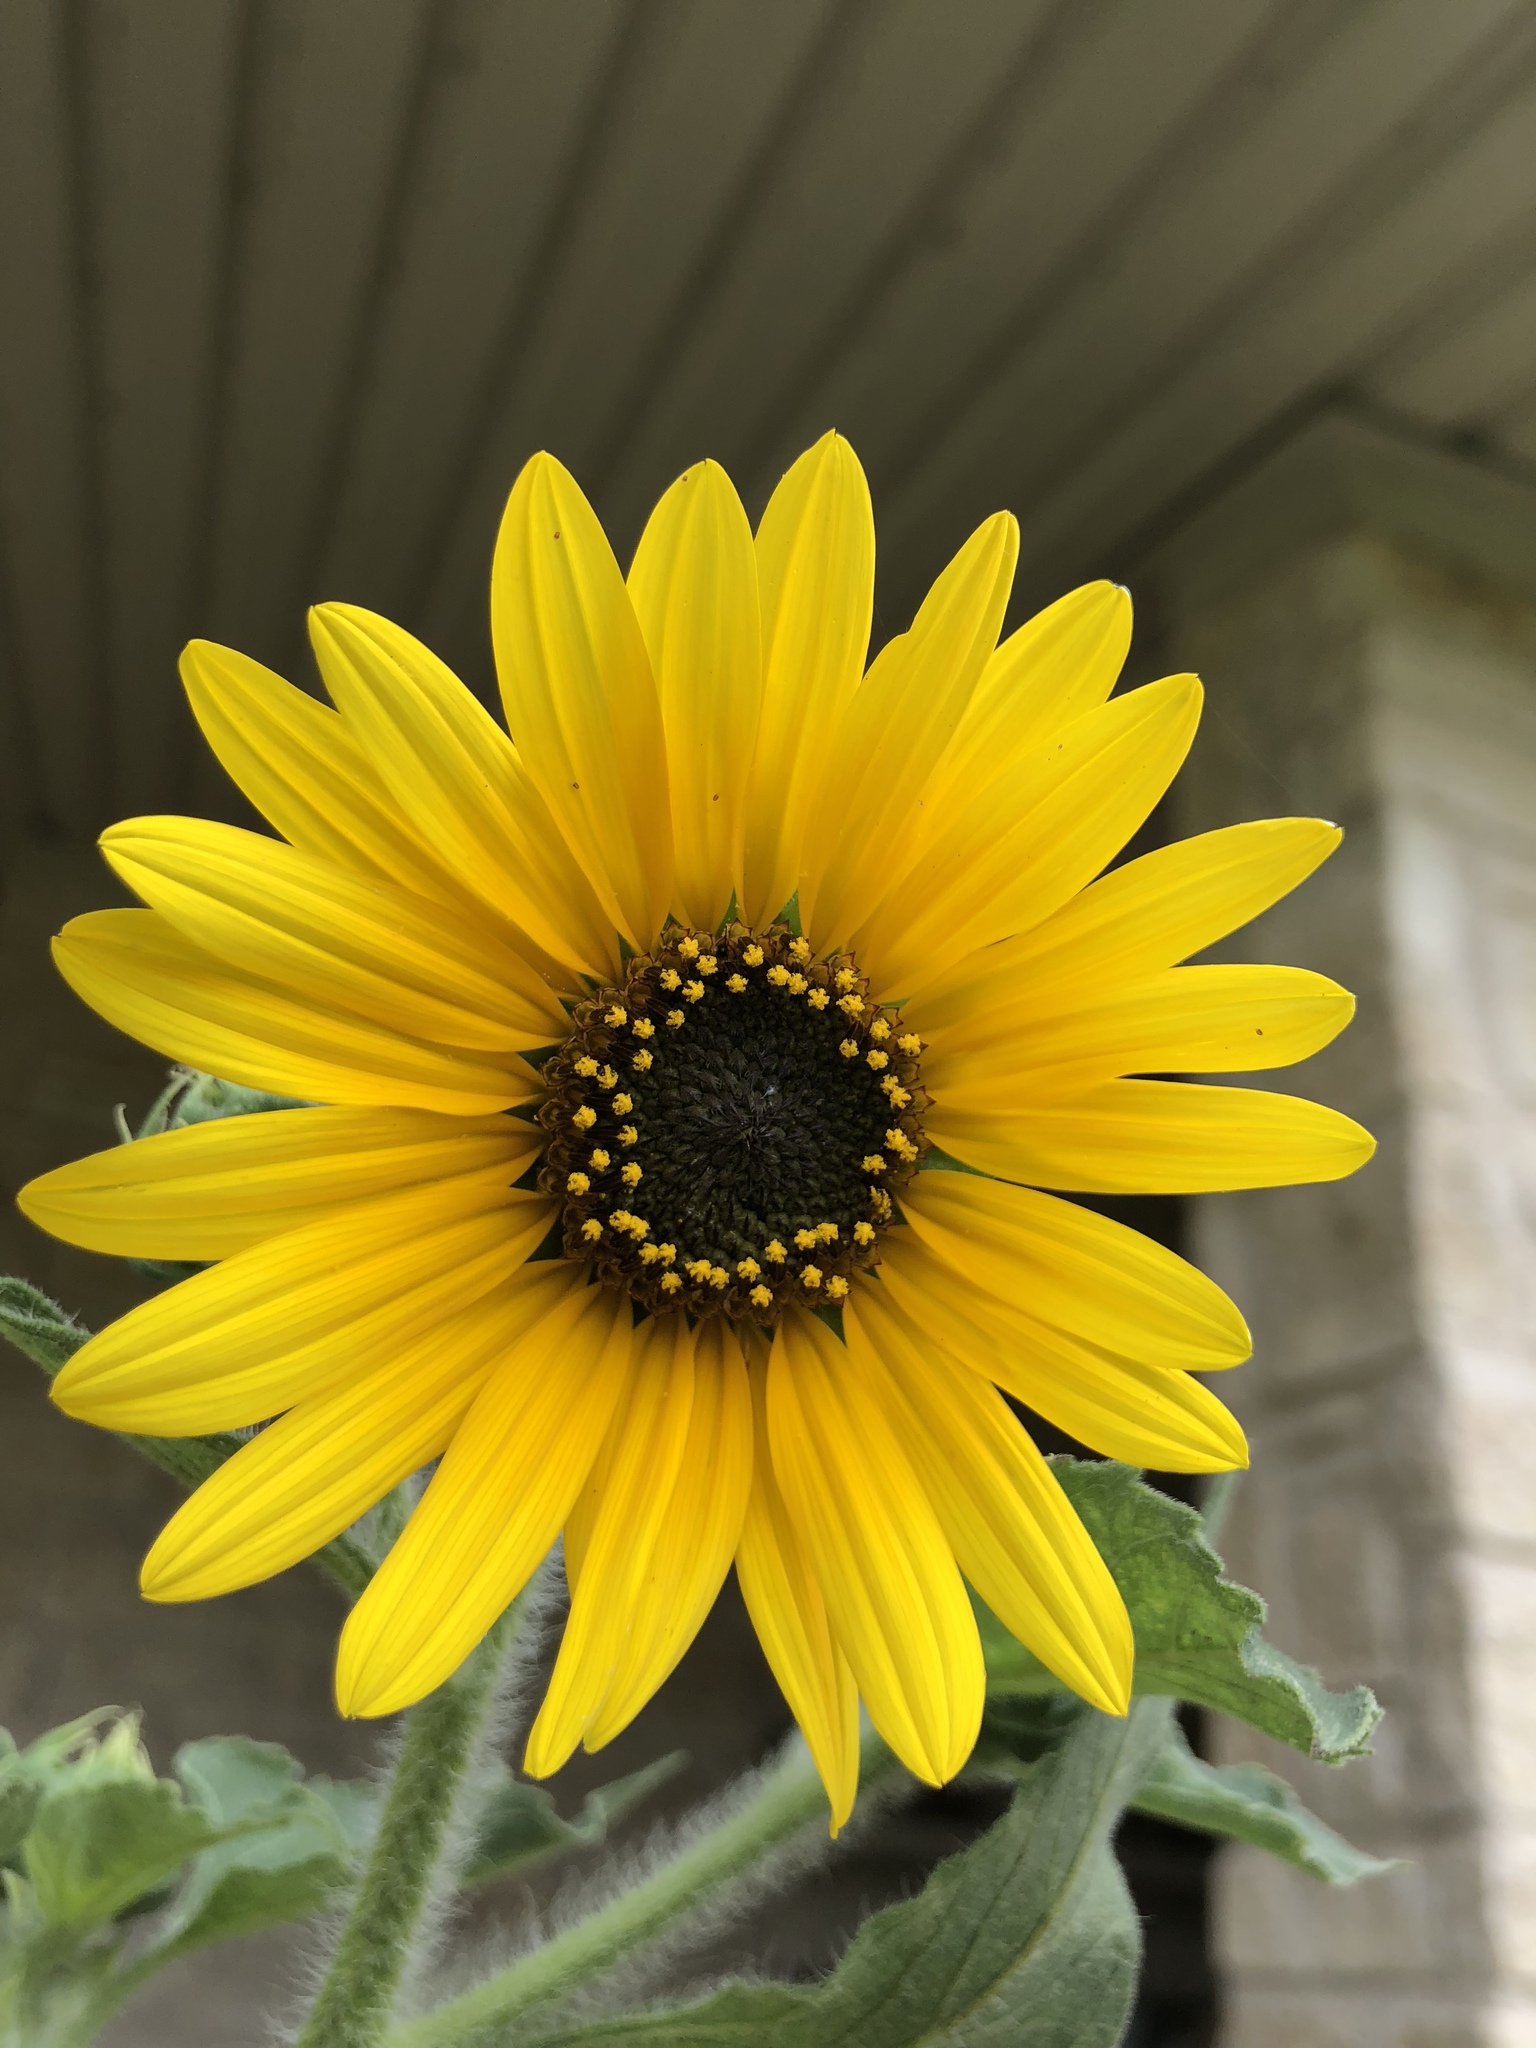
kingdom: Plantae
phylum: Tracheophyta
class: Magnoliopsida
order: Asterales
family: Asteraceae
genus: Helianthus
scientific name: Helianthus annuus
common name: Sunflower
